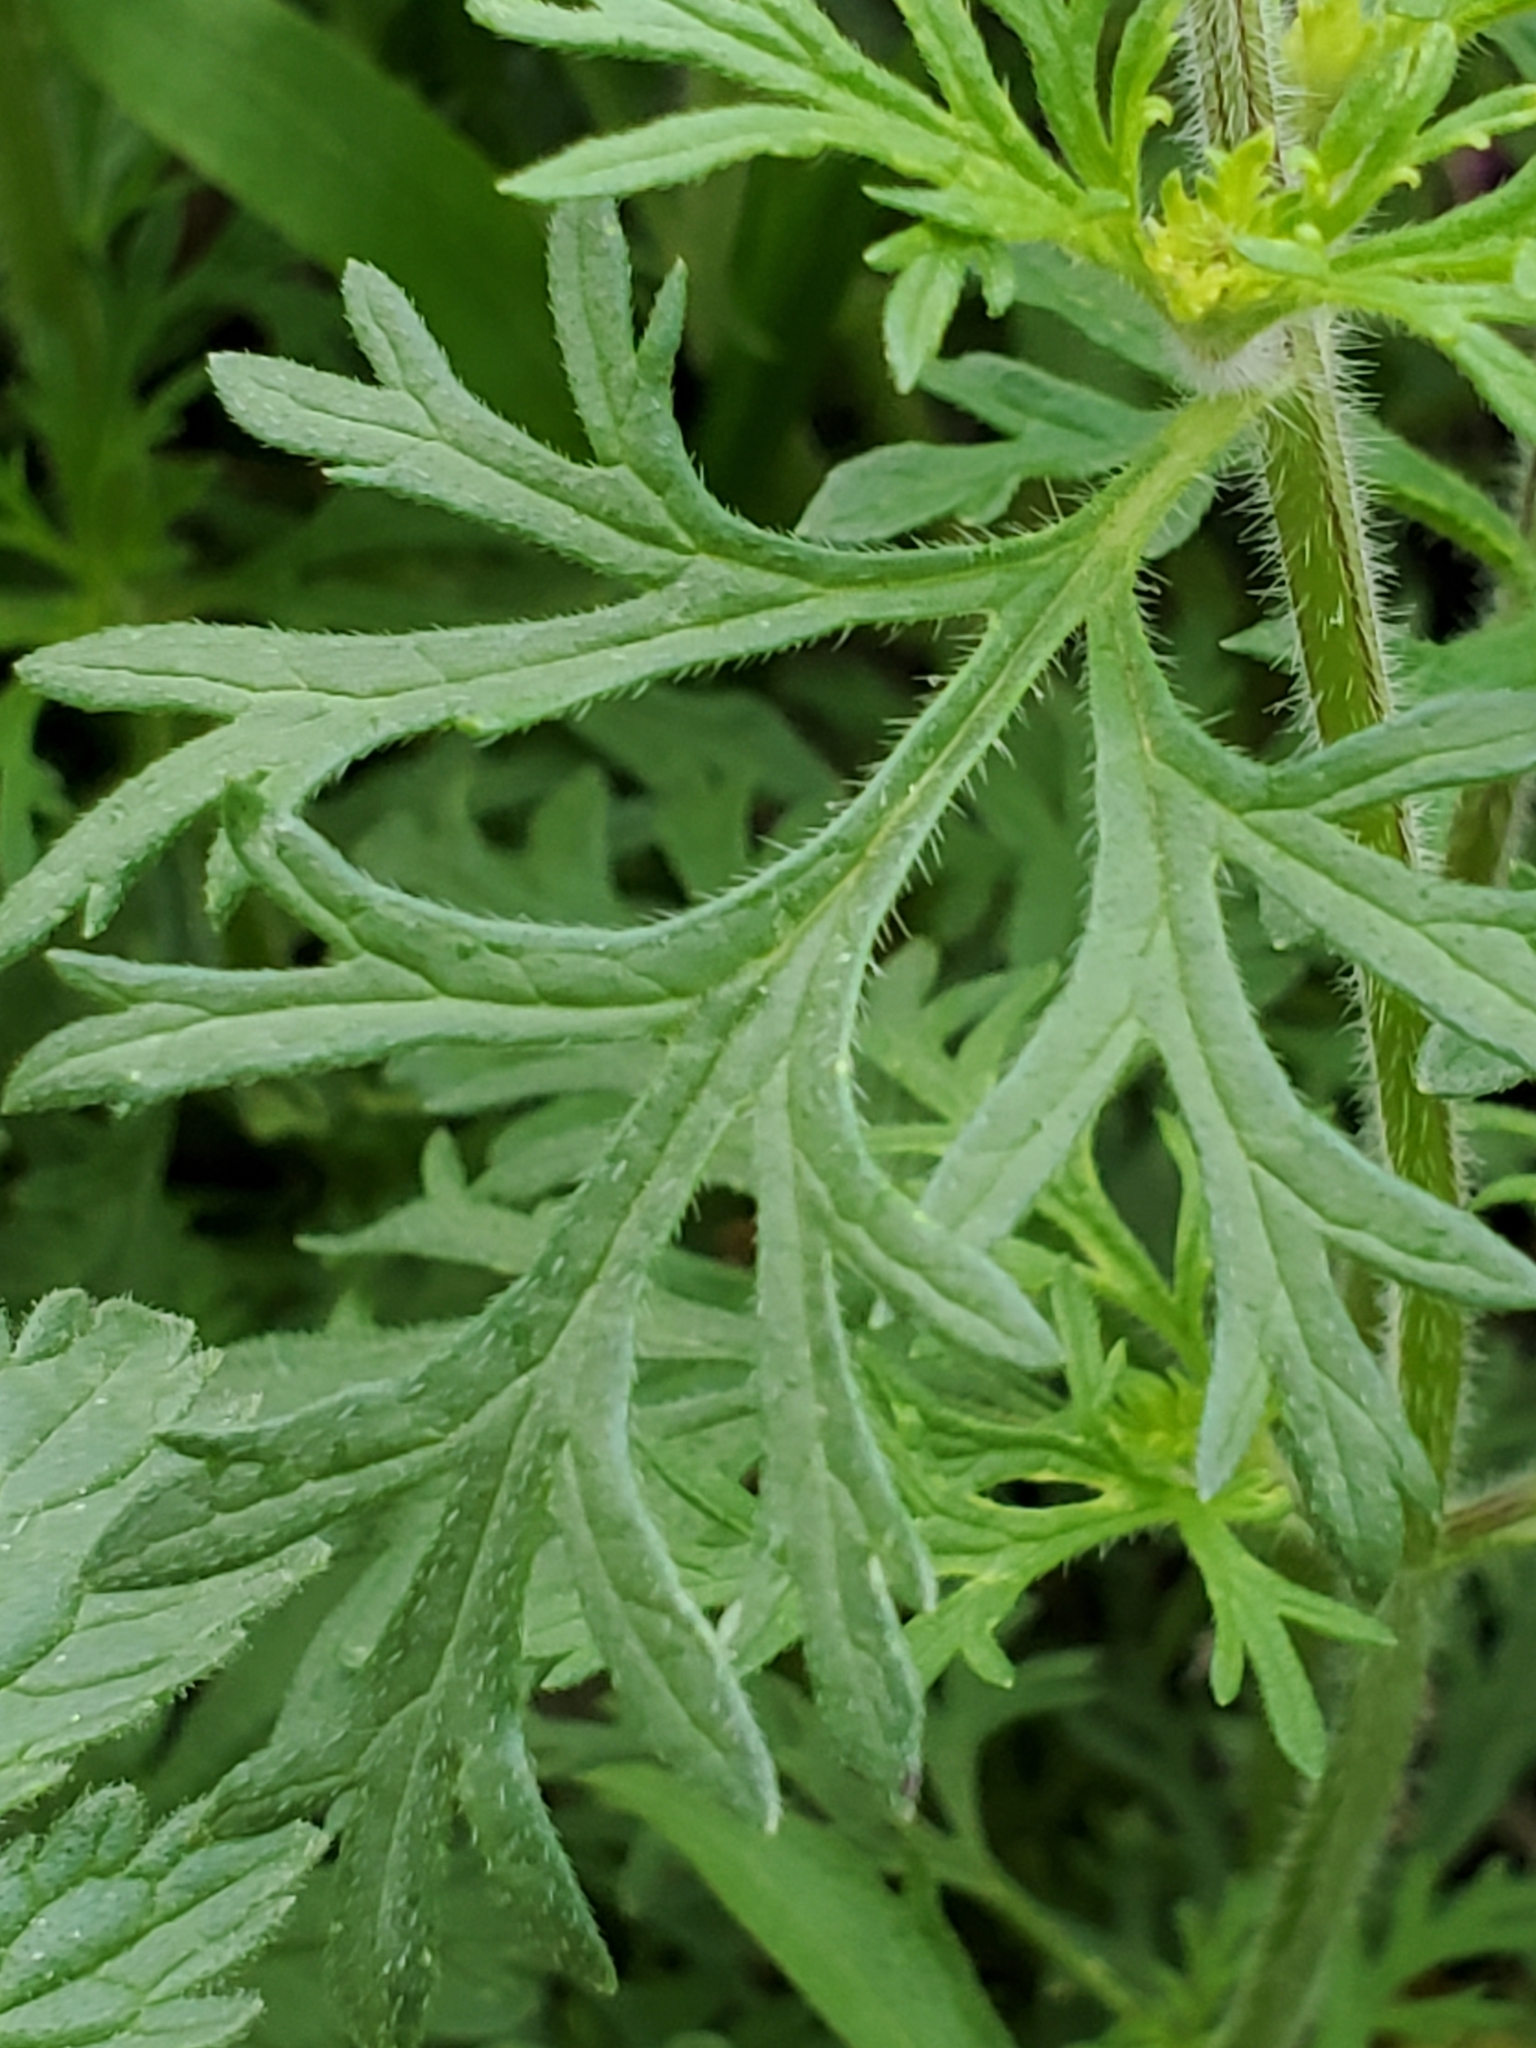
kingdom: Plantae
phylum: Tracheophyta
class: Magnoliopsida
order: Lamiales
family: Verbenaceae
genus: Verbena
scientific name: Verbena tumidula
